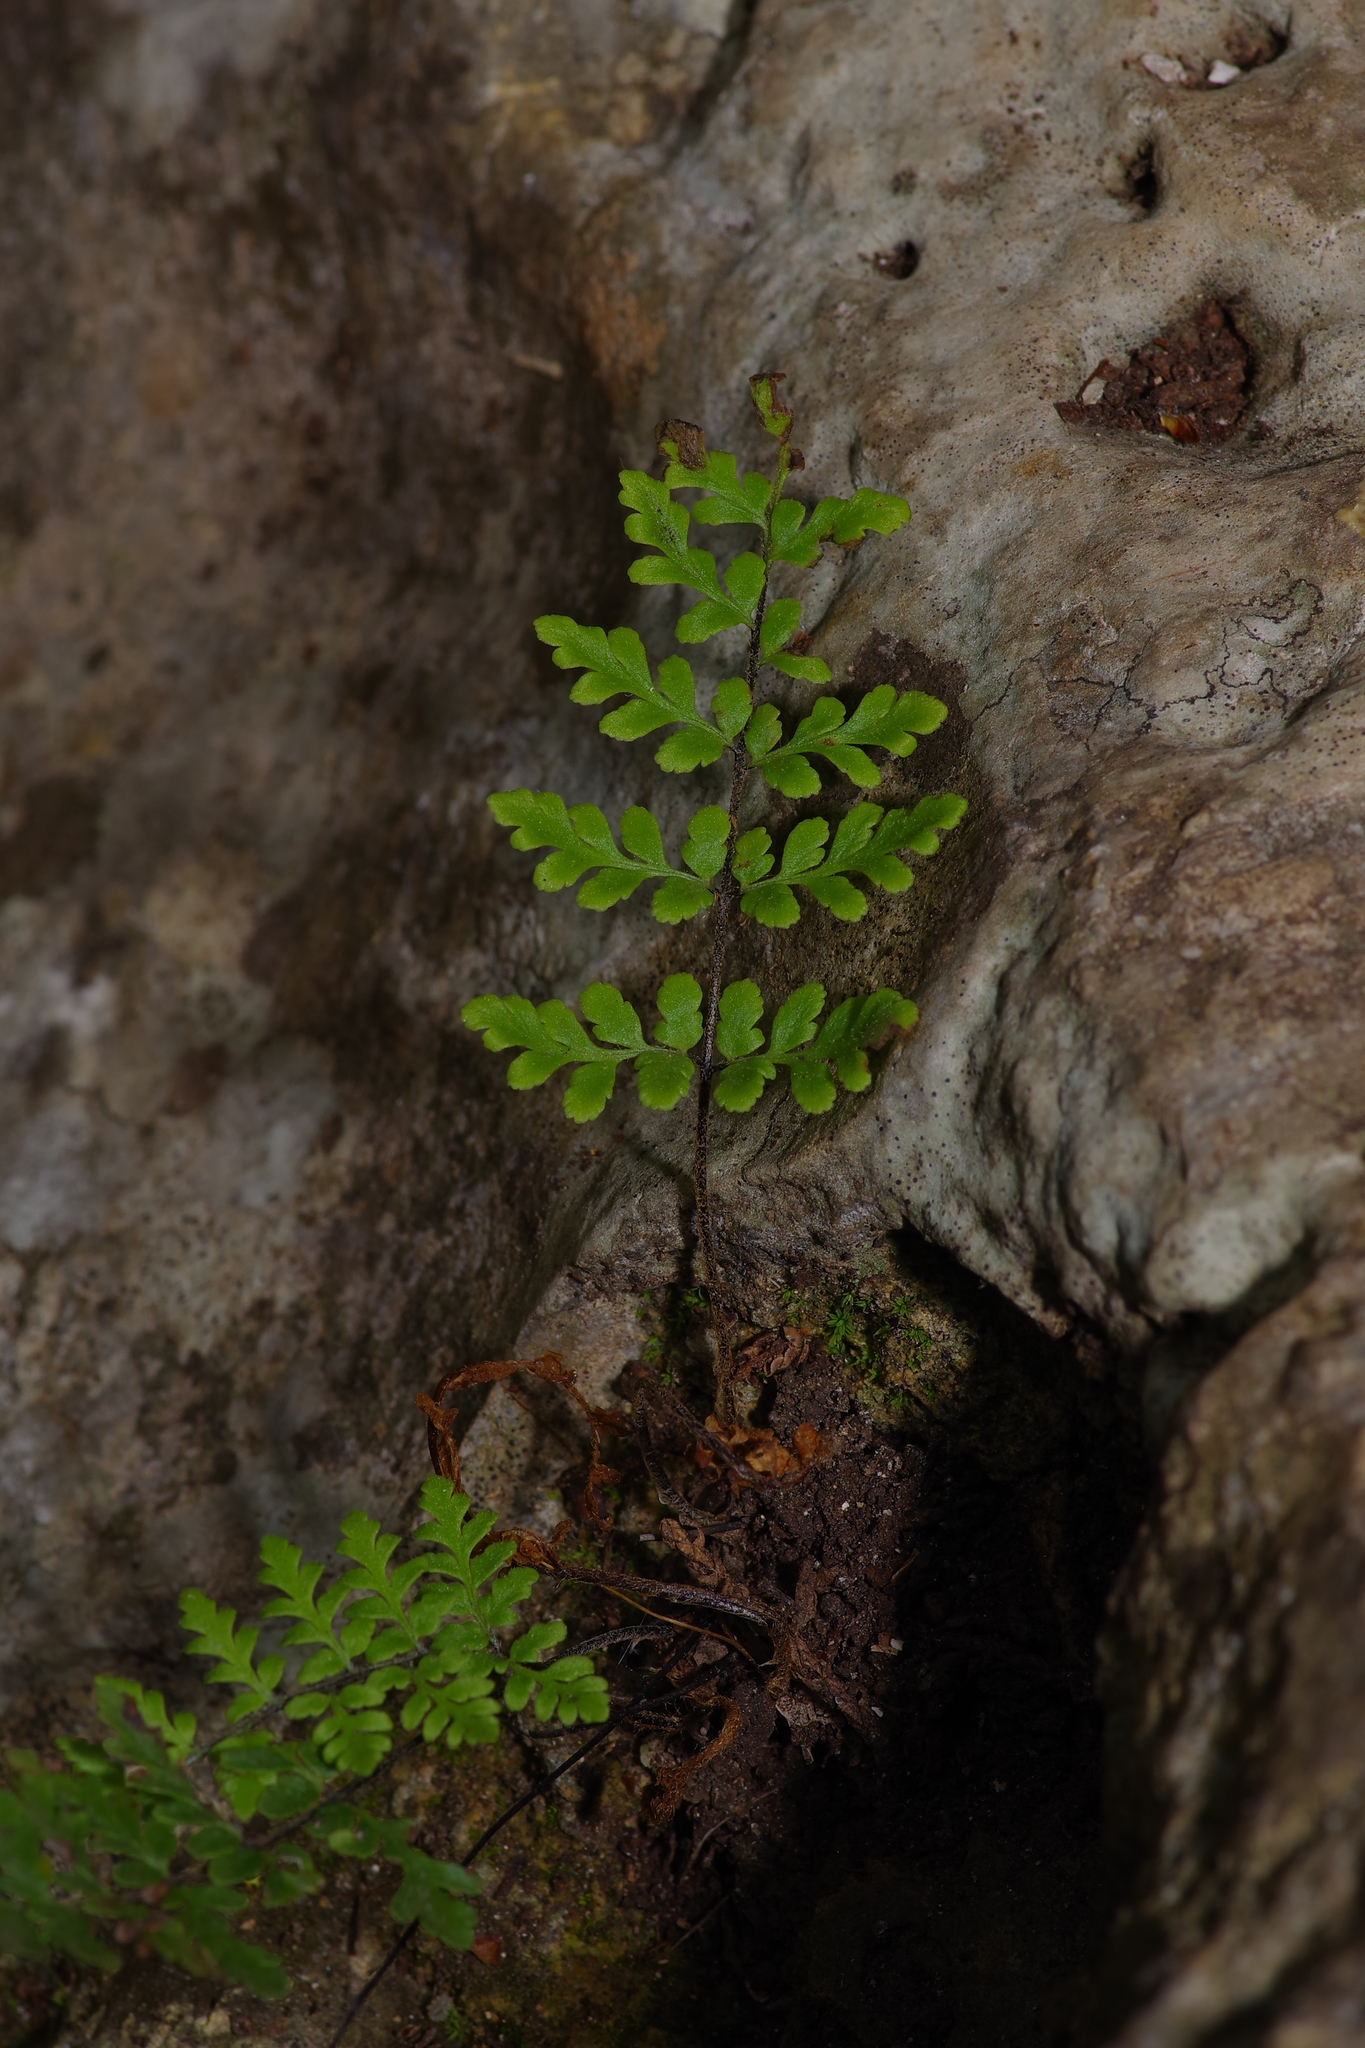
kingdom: Plantae
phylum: Tracheophyta
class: Polypodiopsida
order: Polypodiales
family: Pteridaceae
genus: Myriopteris
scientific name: Myriopteris alabamensis
